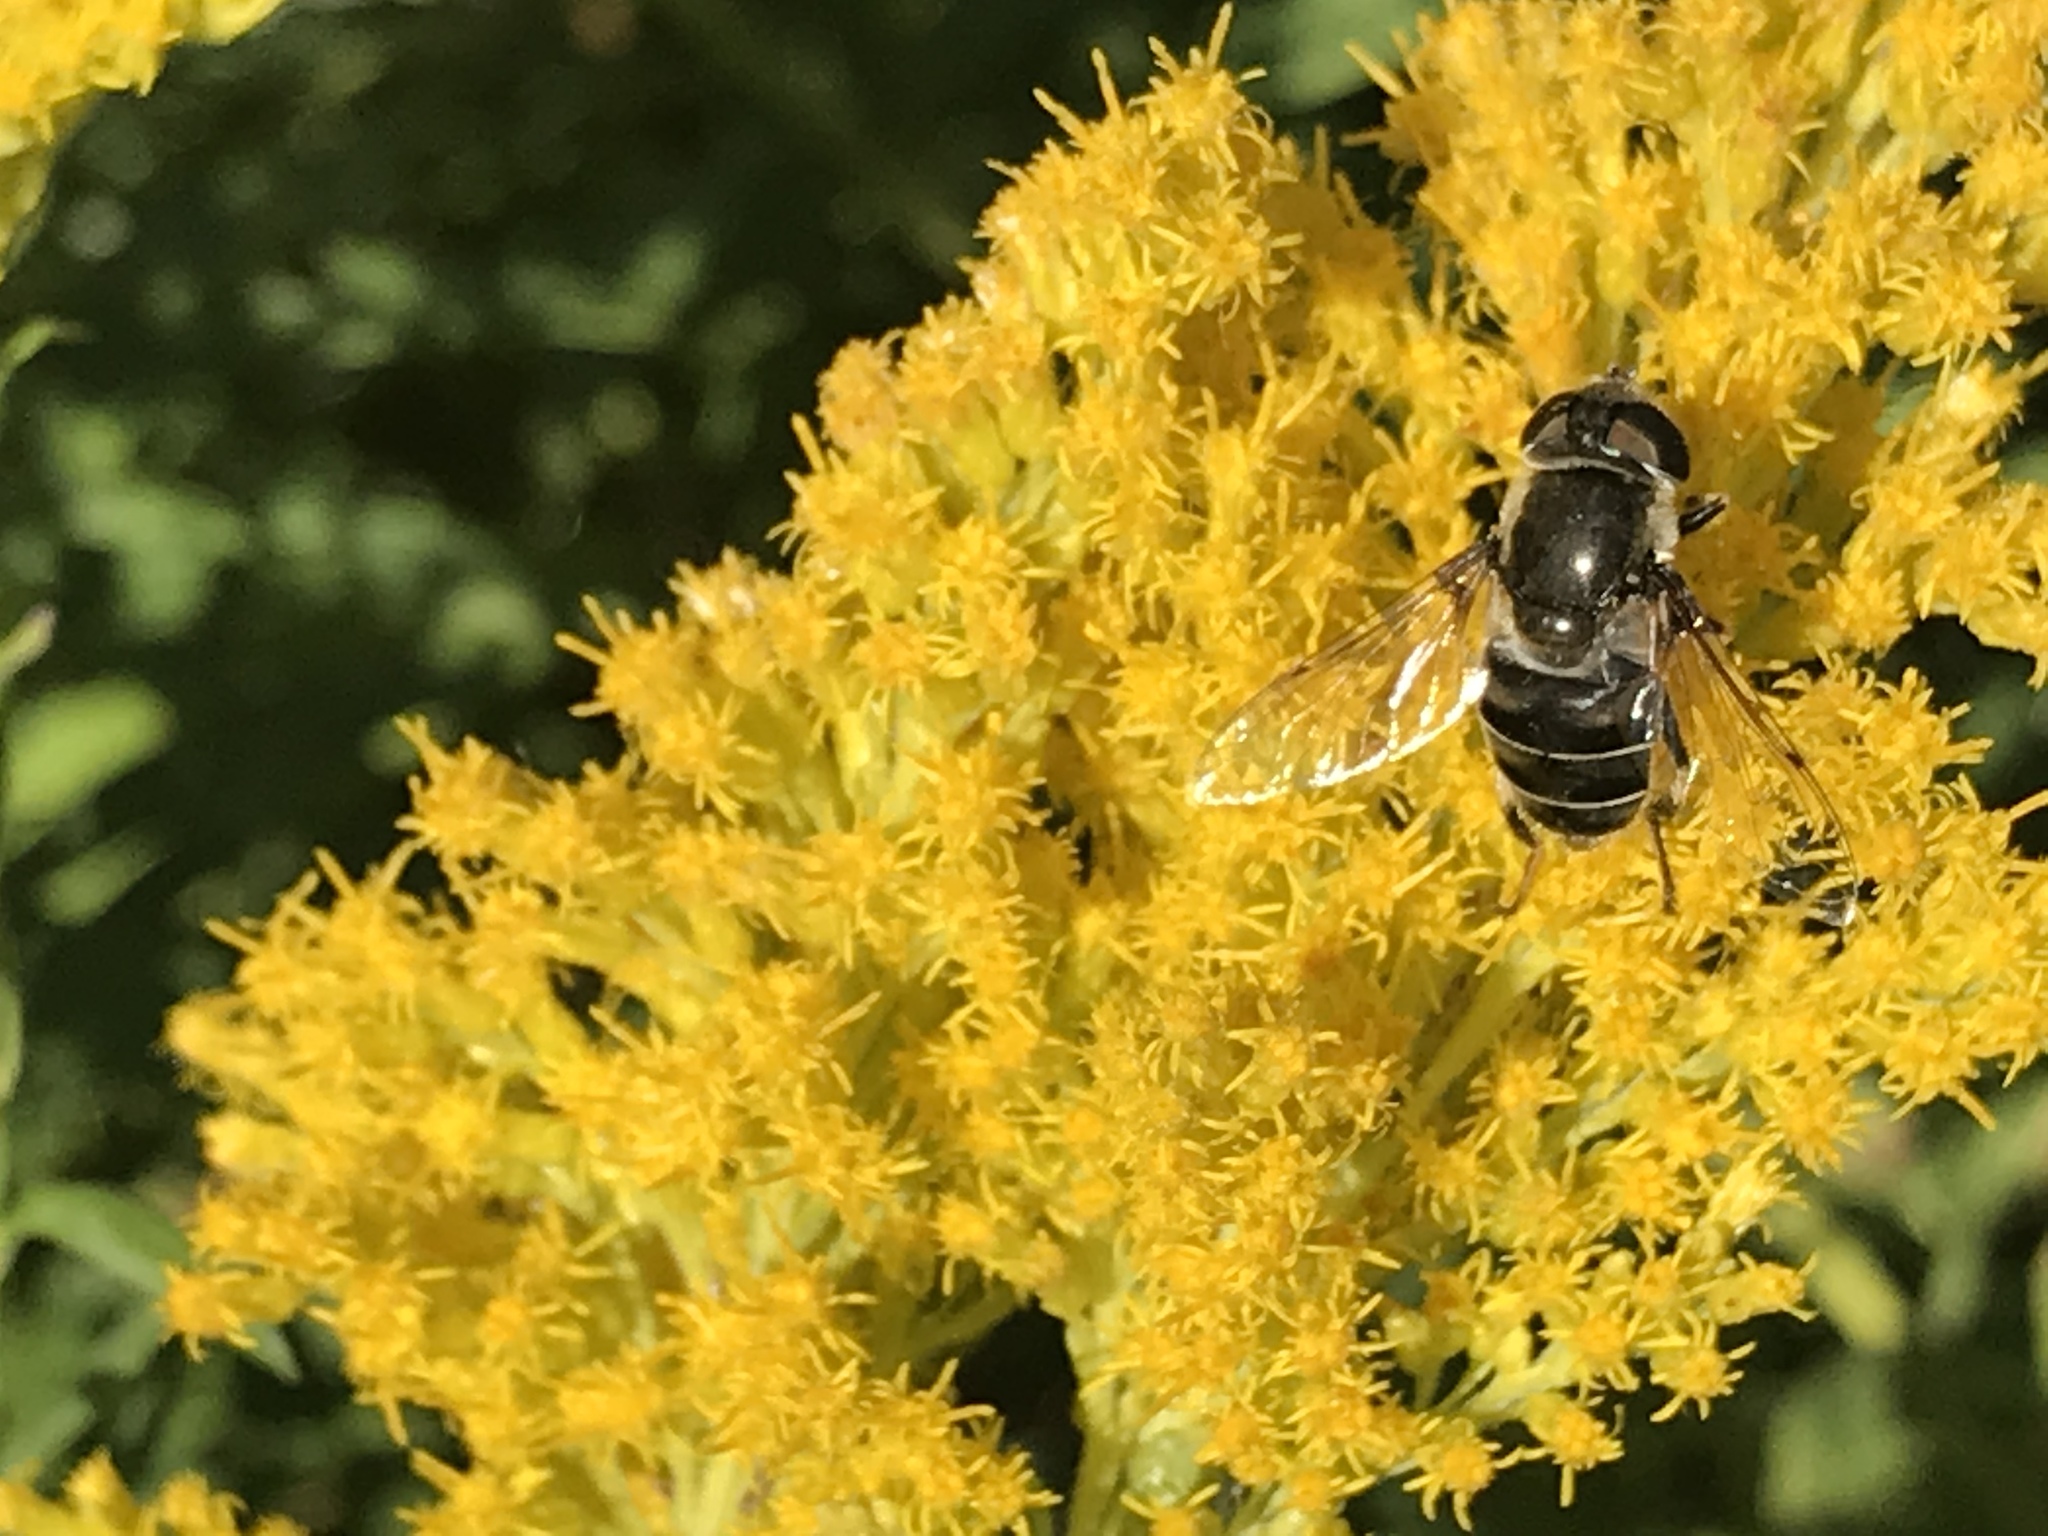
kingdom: Animalia
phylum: Arthropoda
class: Insecta
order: Diptera
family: Syrphidae
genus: Eristalis
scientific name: Eristalis dimidiata
